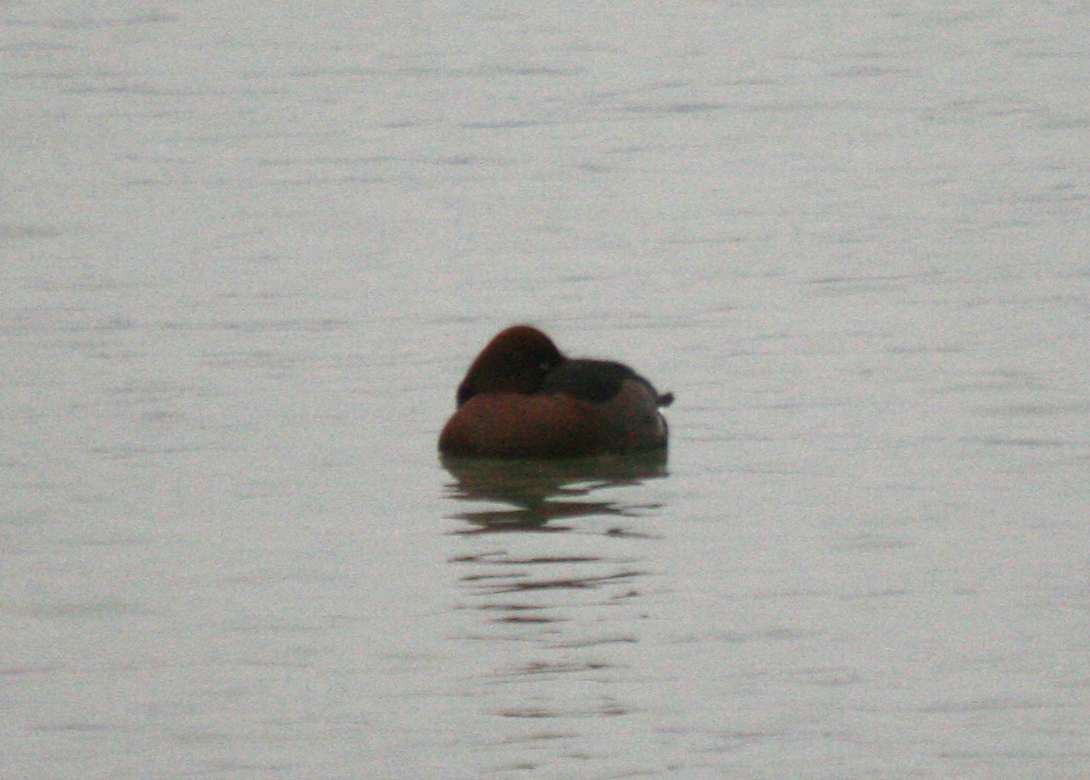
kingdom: Animalia
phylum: Chordata
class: Aves
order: Anseriformes
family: Anatidae
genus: Aythya
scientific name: Aythya nyroca
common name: Ferruginous duck
